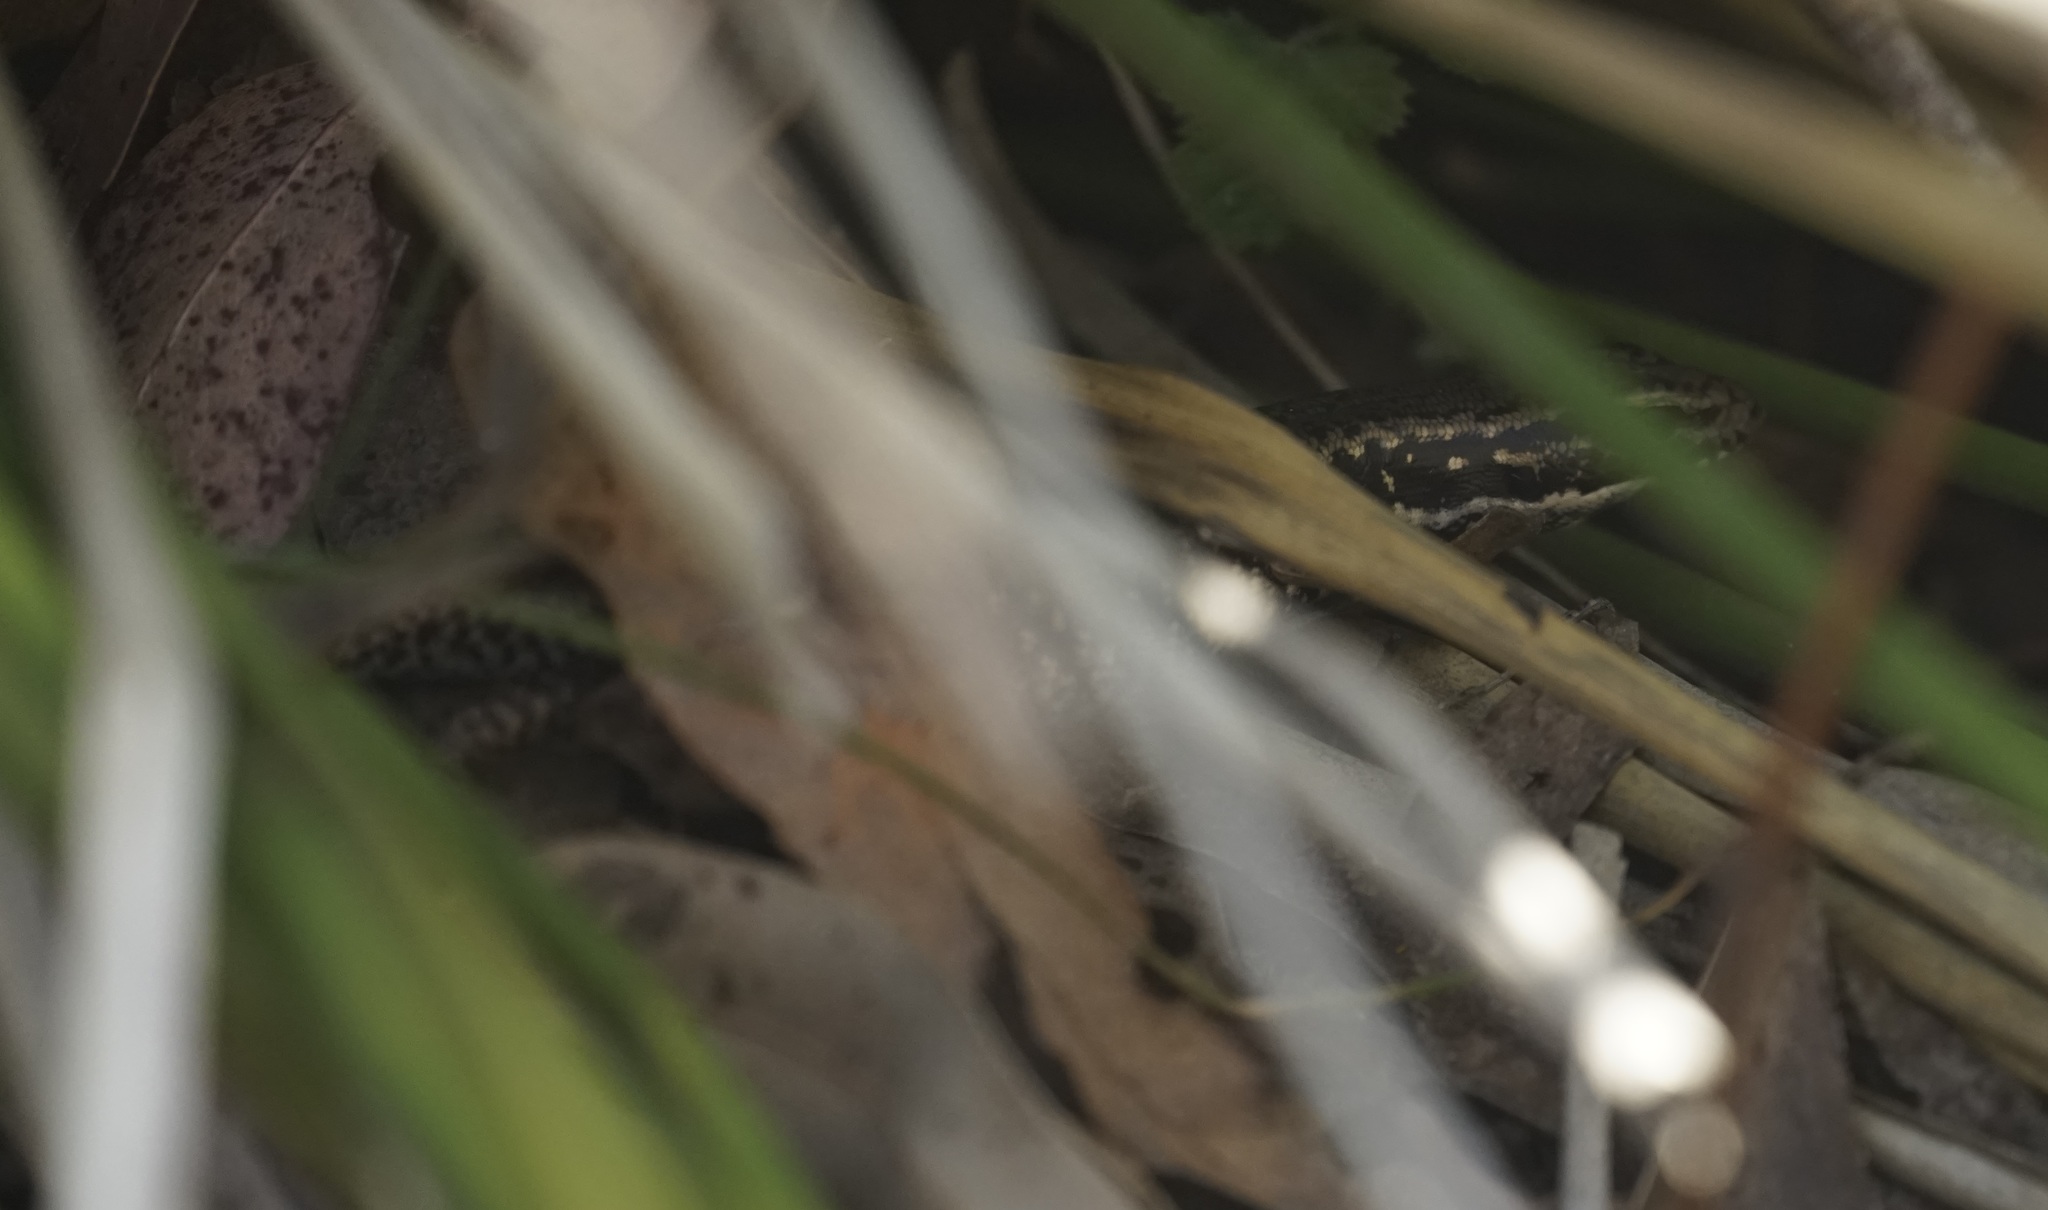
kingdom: Animalia
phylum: Chordata
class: Squamata
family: Scincidae
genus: Eulamprus
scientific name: Eulamprus heatwolei
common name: Warm-temperate water-skink
